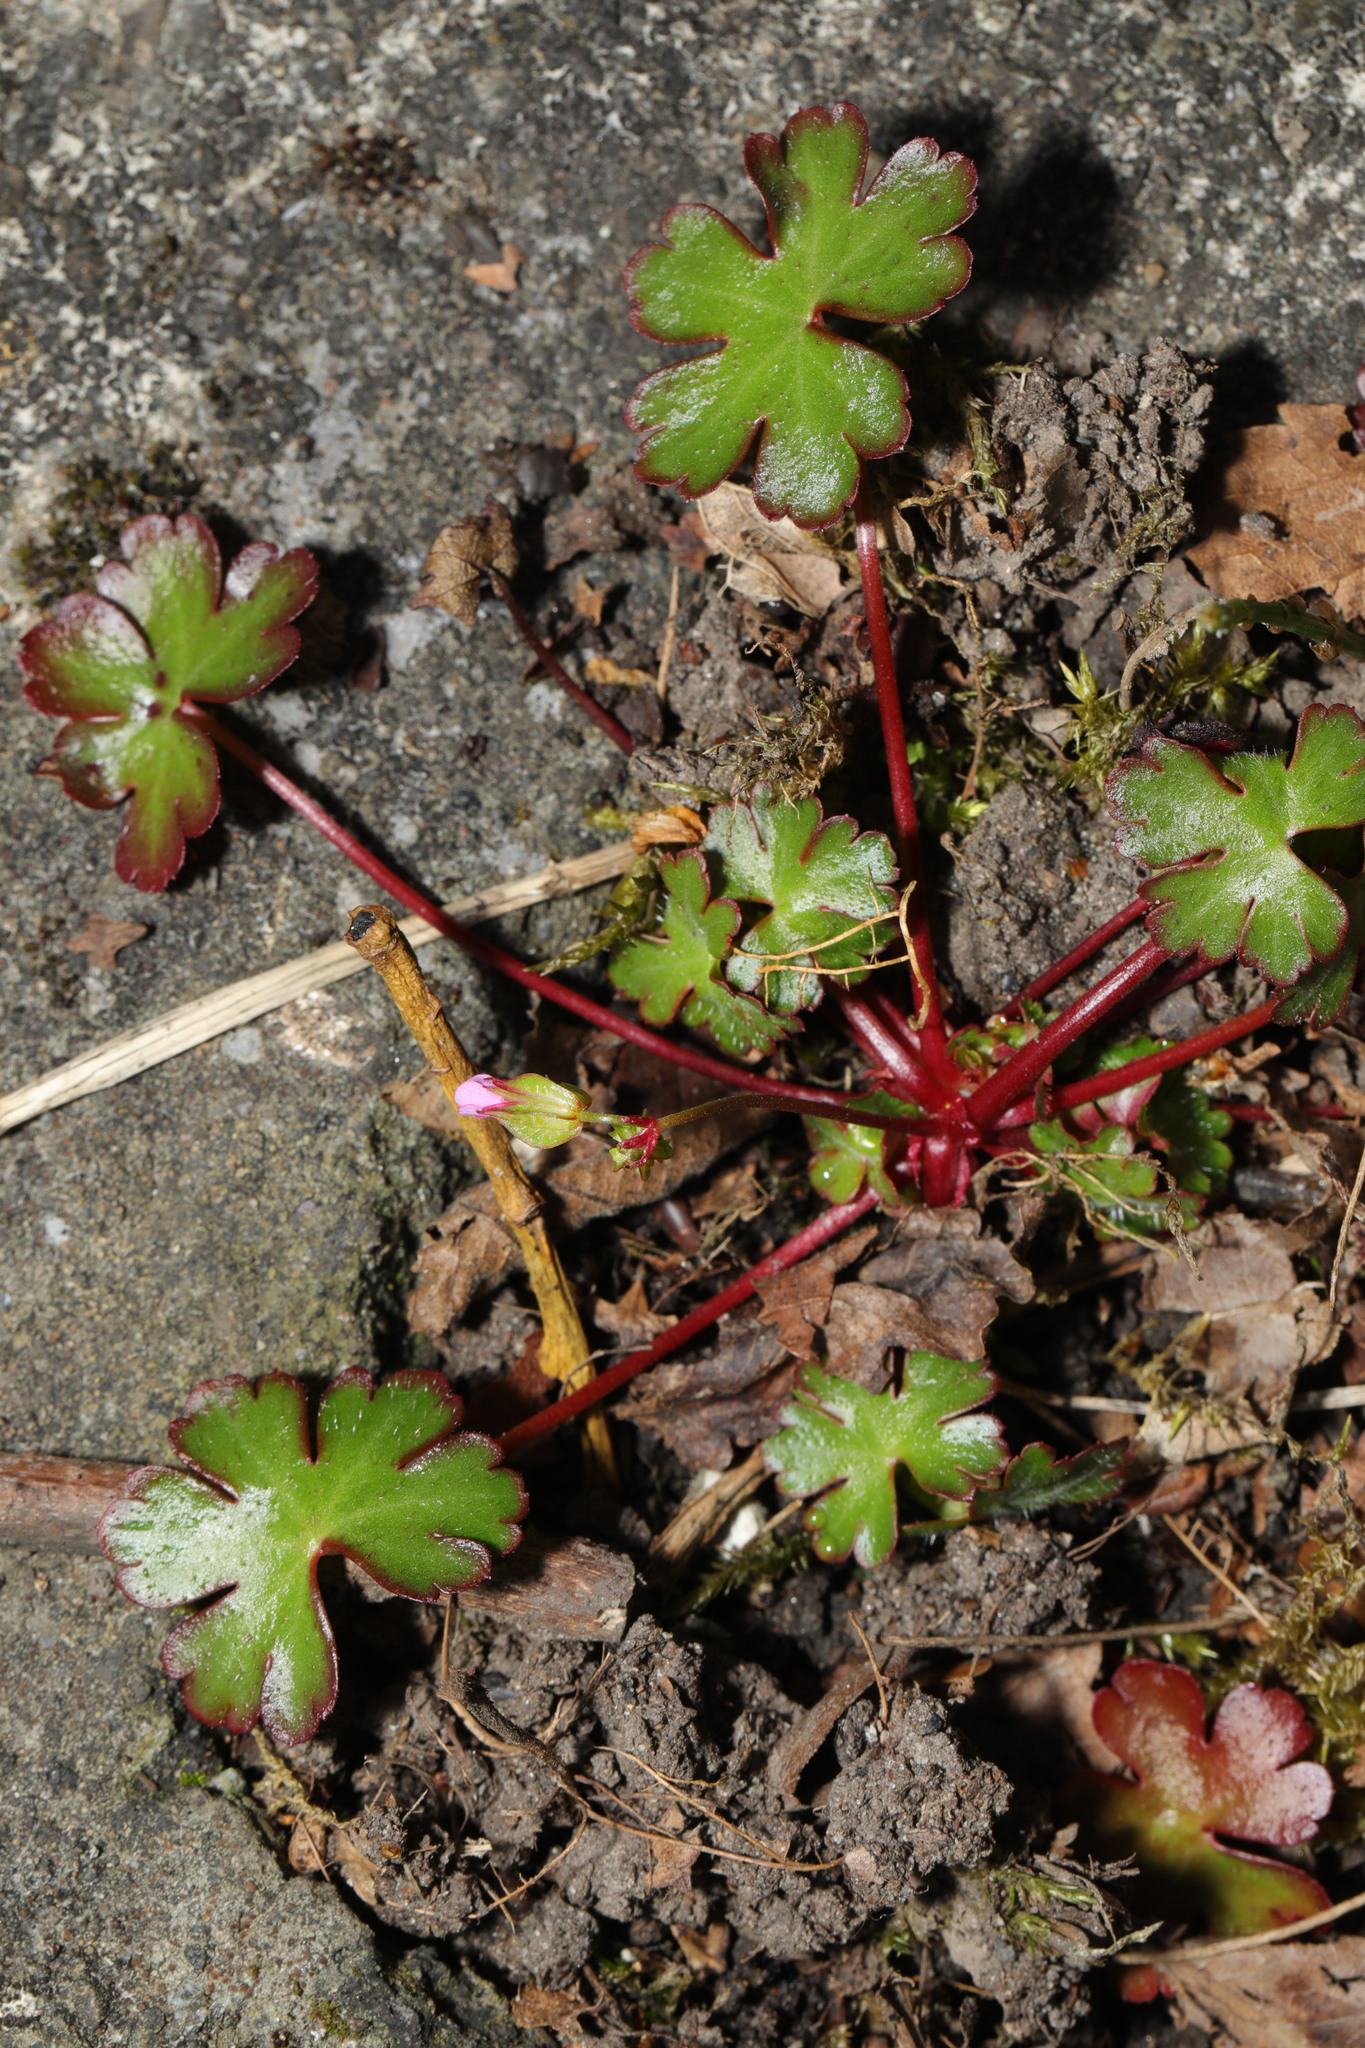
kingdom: Plantae
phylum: Tracheophyta
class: Magnoliopsida
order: Geraniales
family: Geraniaceae
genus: Geranium
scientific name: Geranium lucidum
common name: Shining crane's-bill
